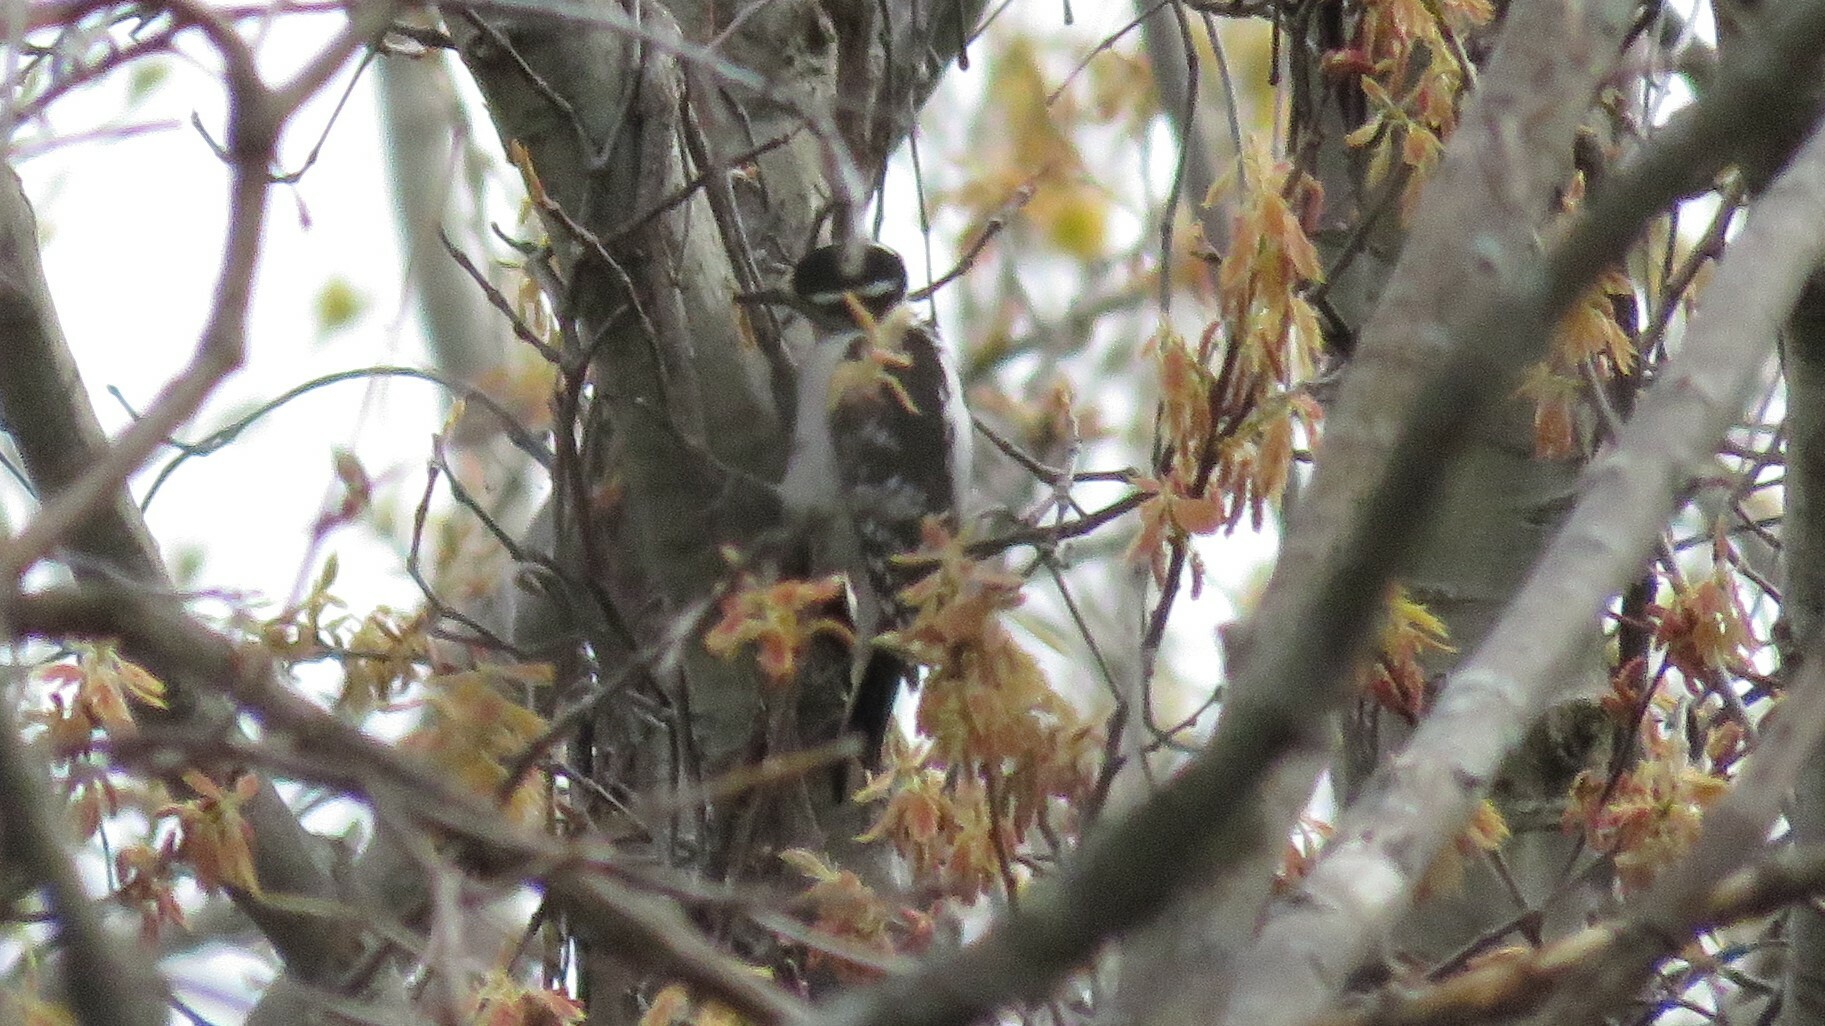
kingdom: Animalia
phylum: Chordata
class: Aves
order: Piciformes
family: Picidae
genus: Leuconotopicus
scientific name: Leuconotopicus villosus
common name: Hairy woodpecker
